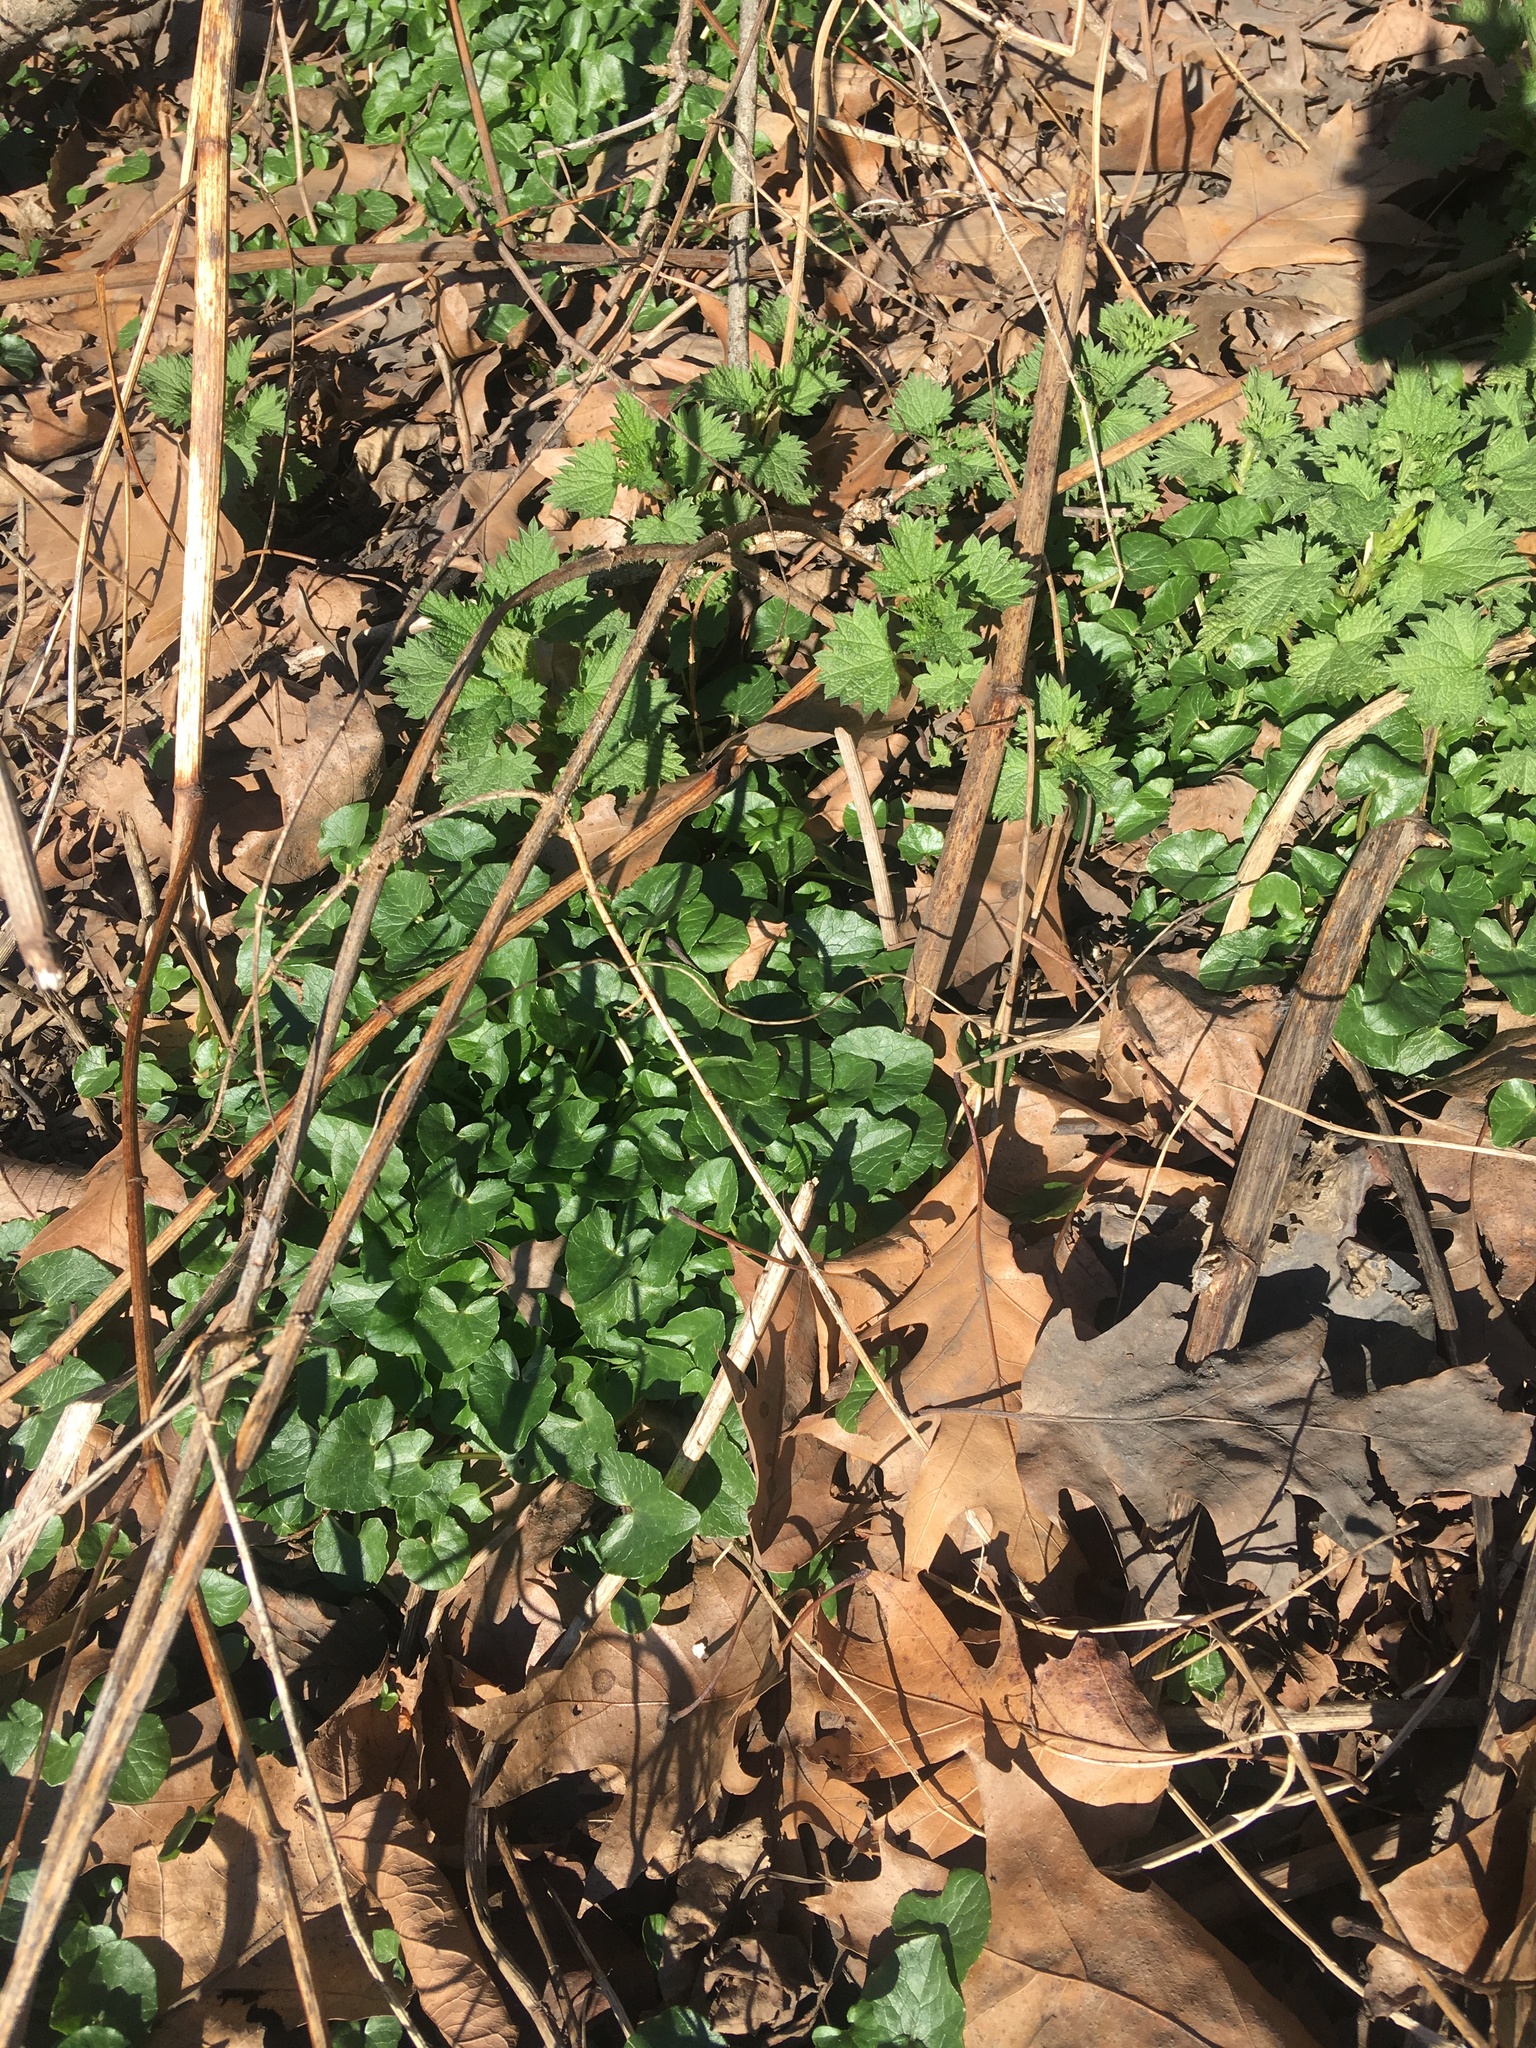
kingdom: Plantae
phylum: Tracheophyta
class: Magnoliopsida
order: Ranunculales
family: Ranunculaceae
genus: Ficaria
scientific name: Ficaria verna
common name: Lesser celandine
